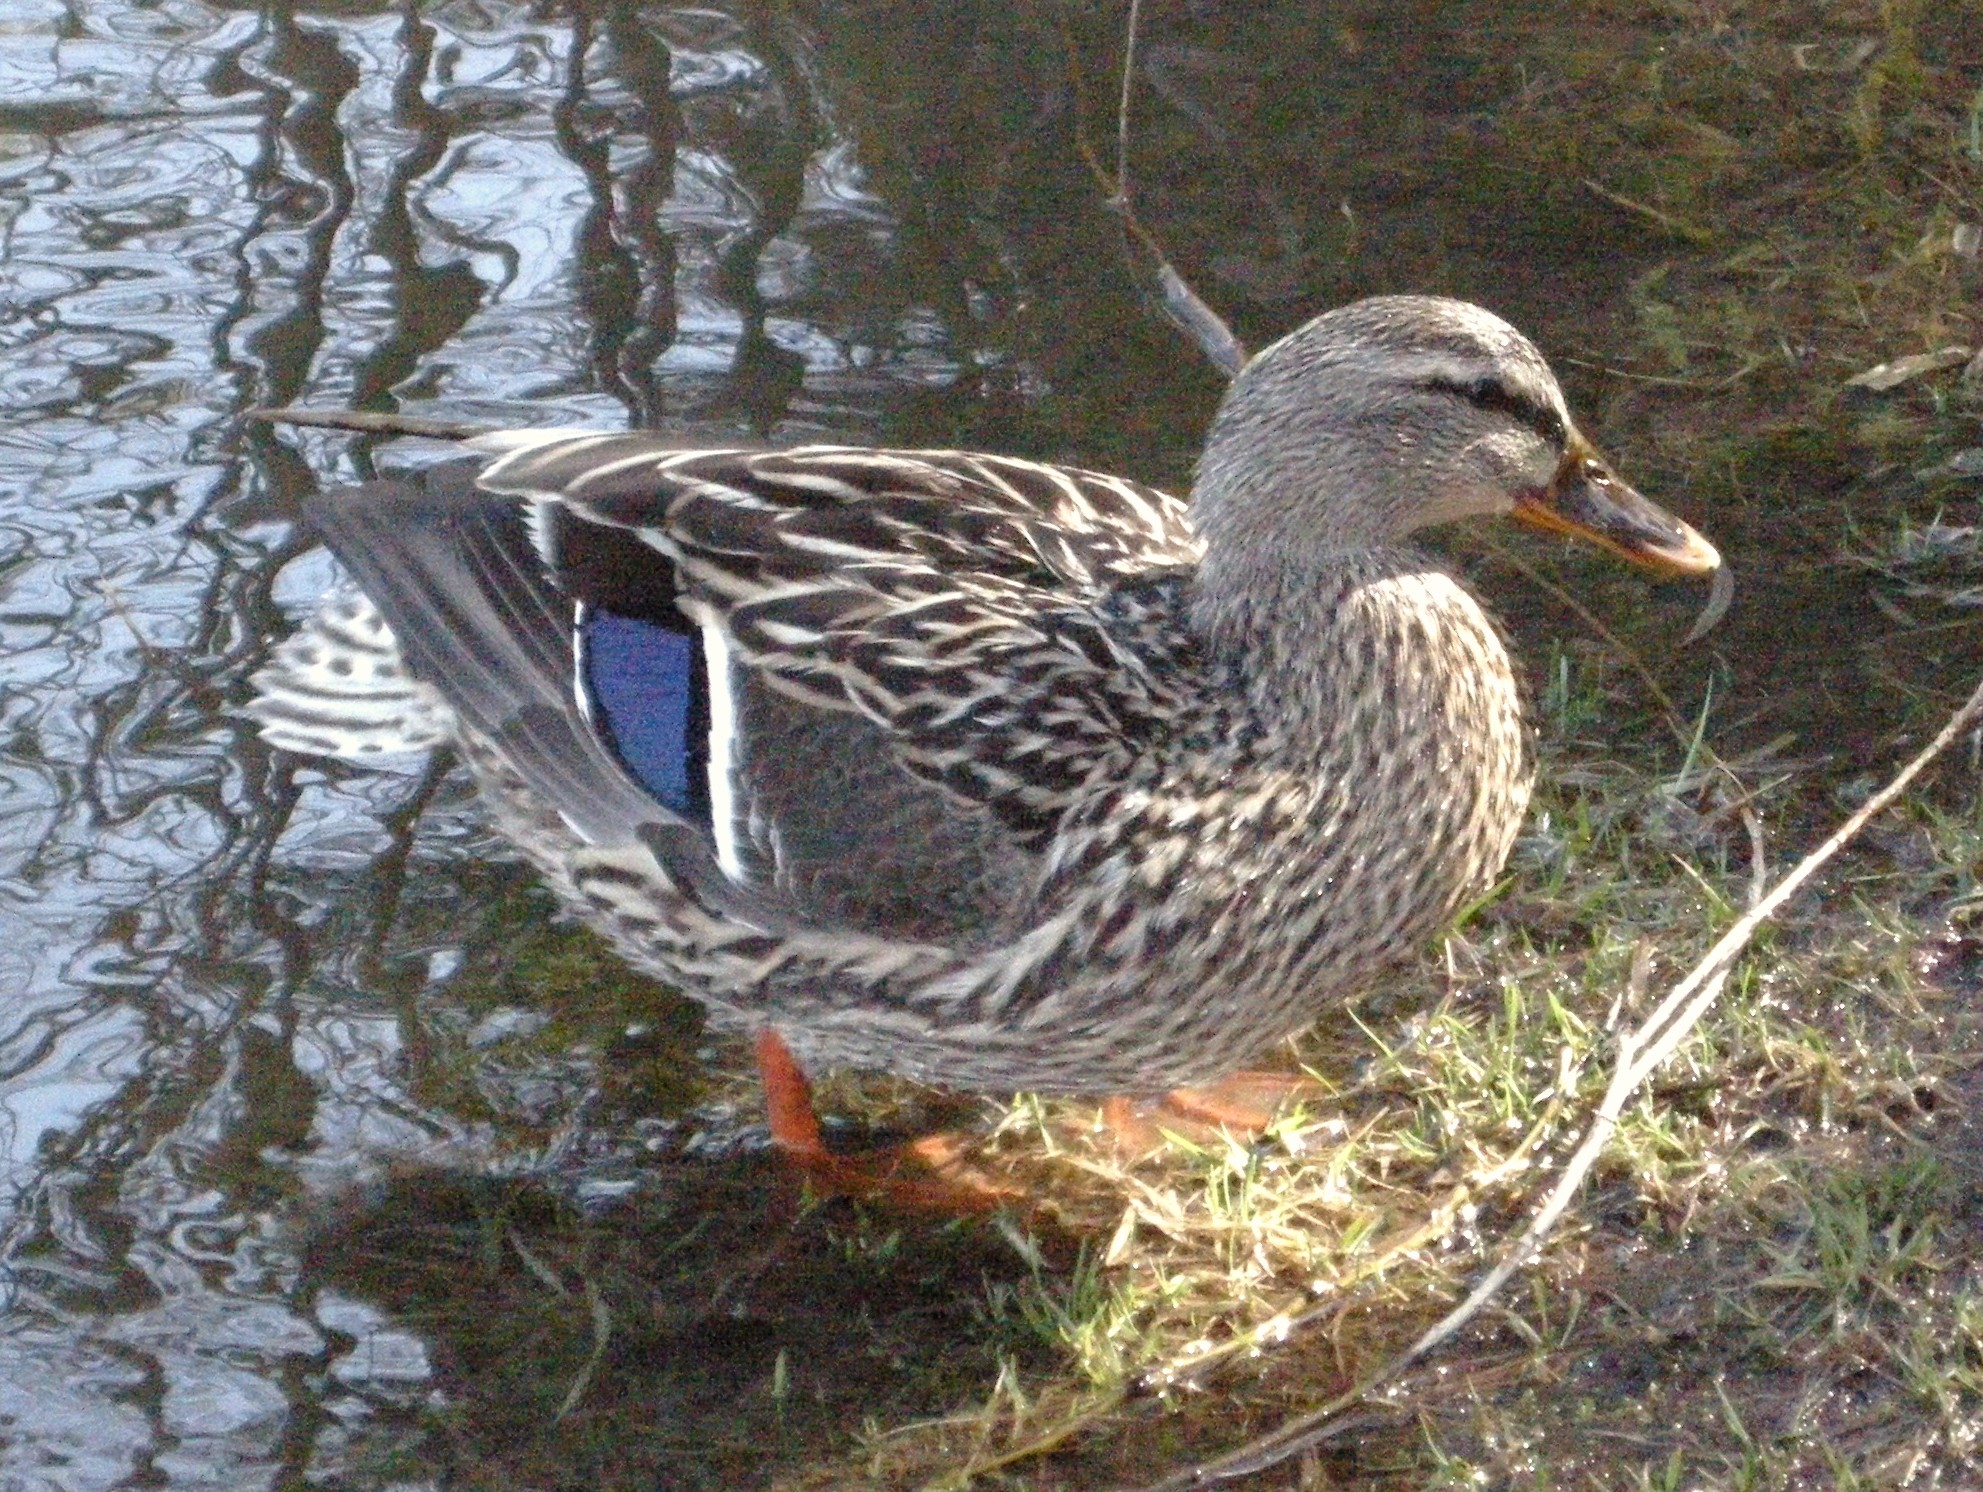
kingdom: Animalia
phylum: Chordata
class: Aves
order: Anseriformes
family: Anatidae
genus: Anas
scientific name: Anas platyrhynchos
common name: Mallard
